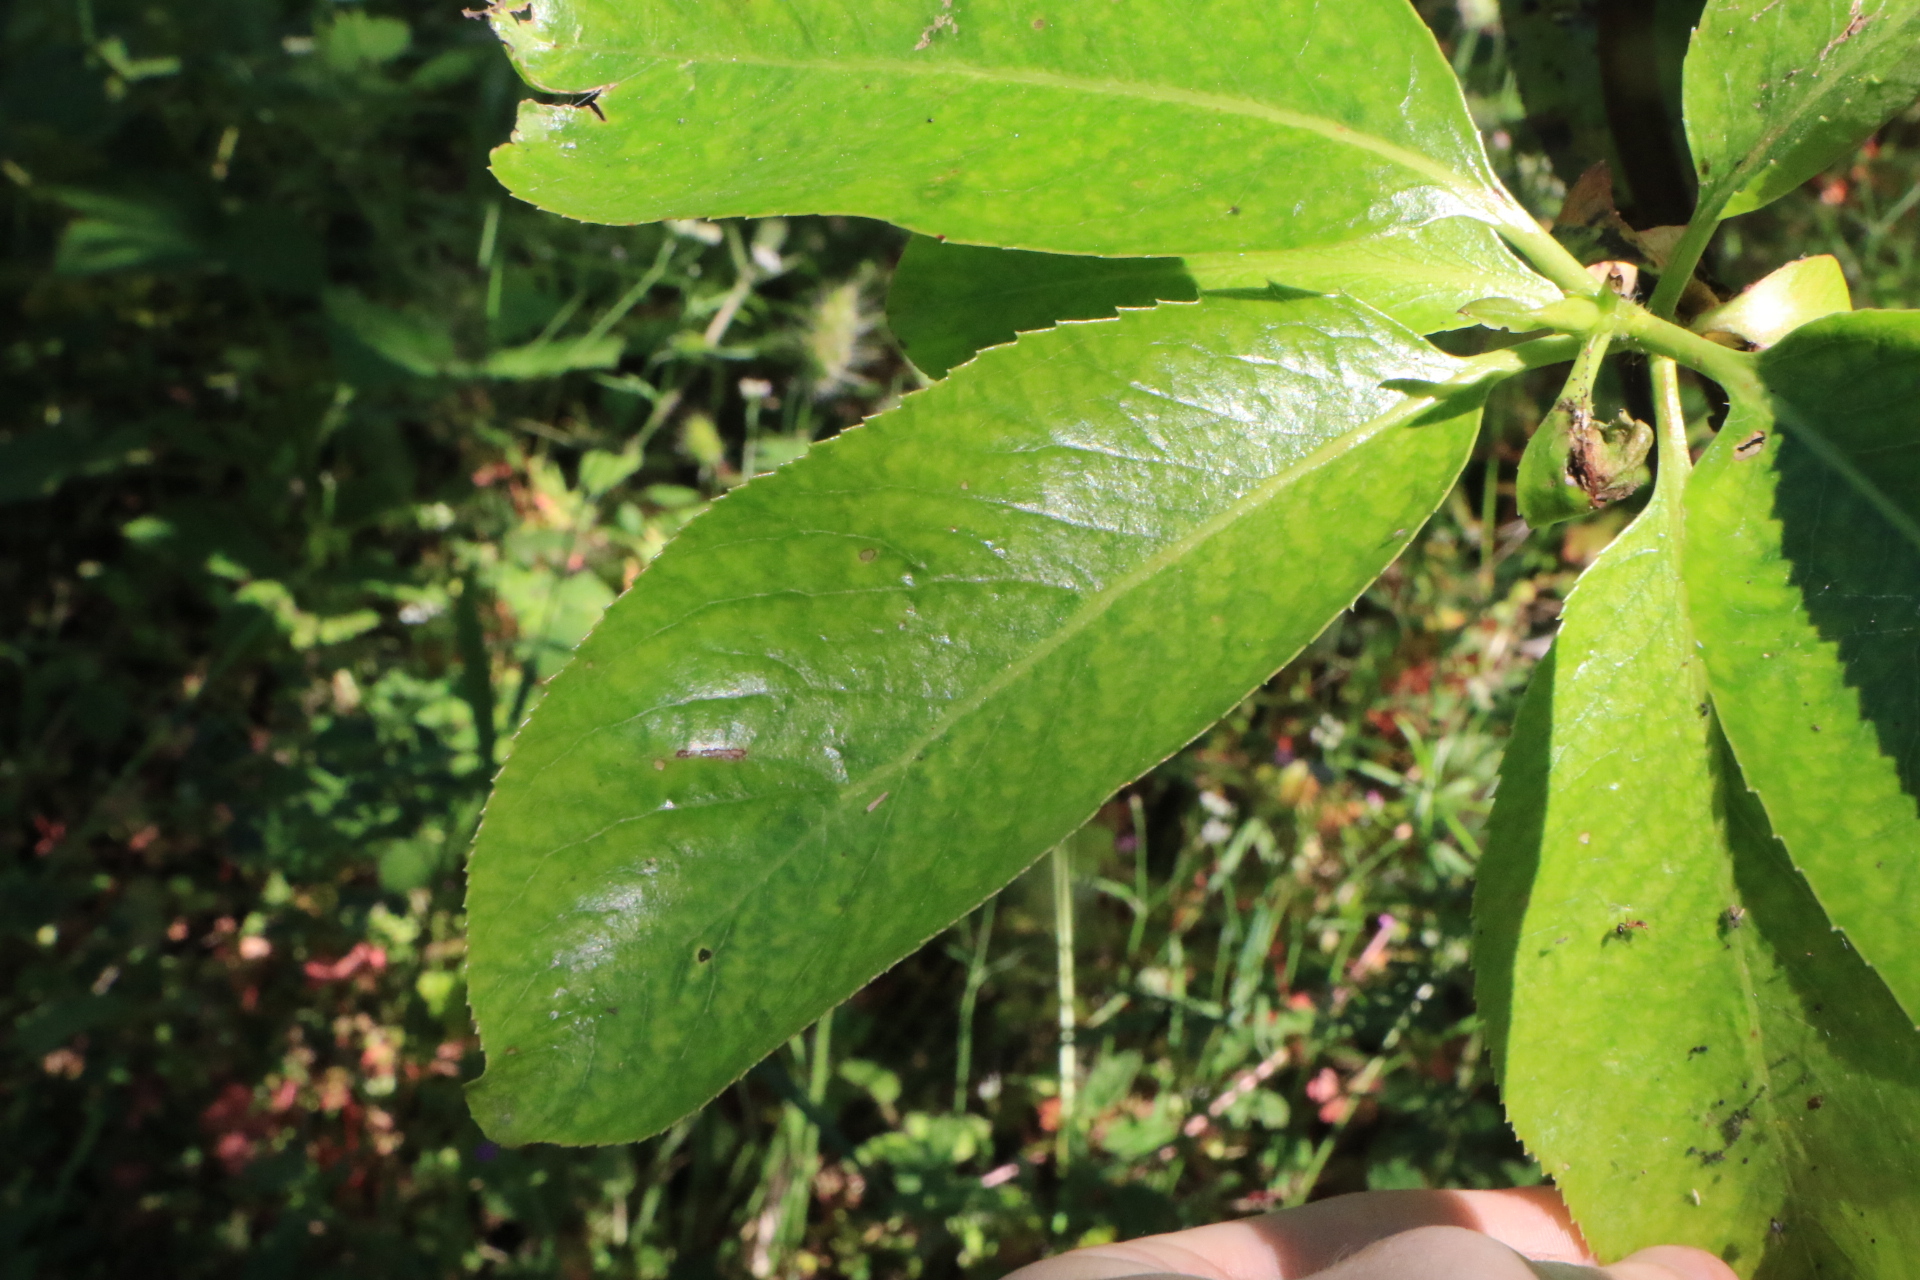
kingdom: Plantae
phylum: Tracheophyta
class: Magnoliopsida
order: Ericales
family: Ericaceae
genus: Arbutus
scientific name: Arbutus menziesii
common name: Pacific madrone
